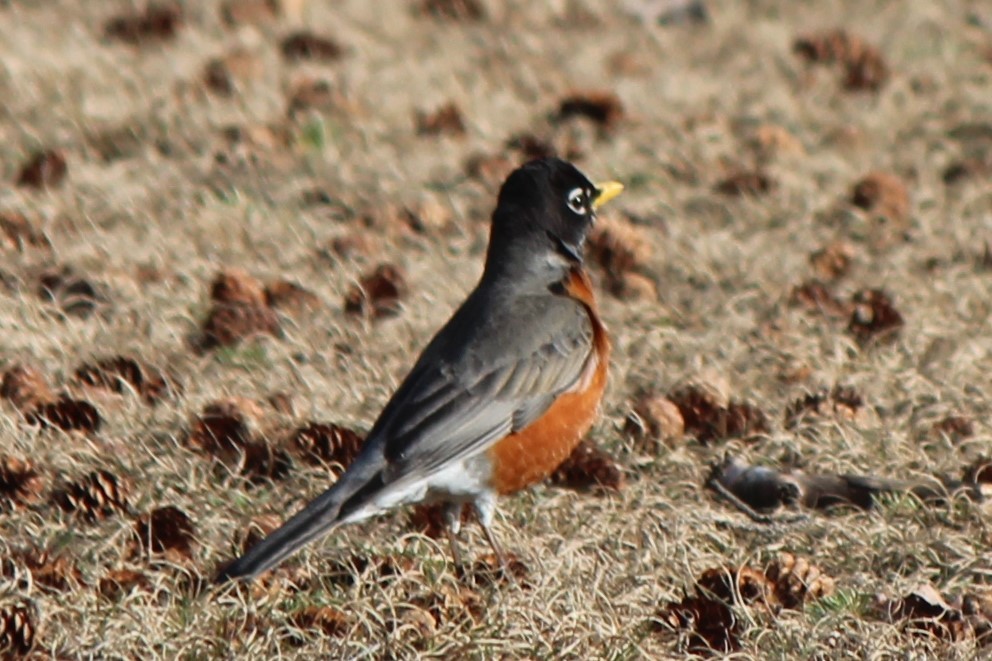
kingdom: Animalia
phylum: Chordata
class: Aves
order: Passeriformes
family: Turdidae
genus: Turdus
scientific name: Turdus migratorius
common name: American robin
